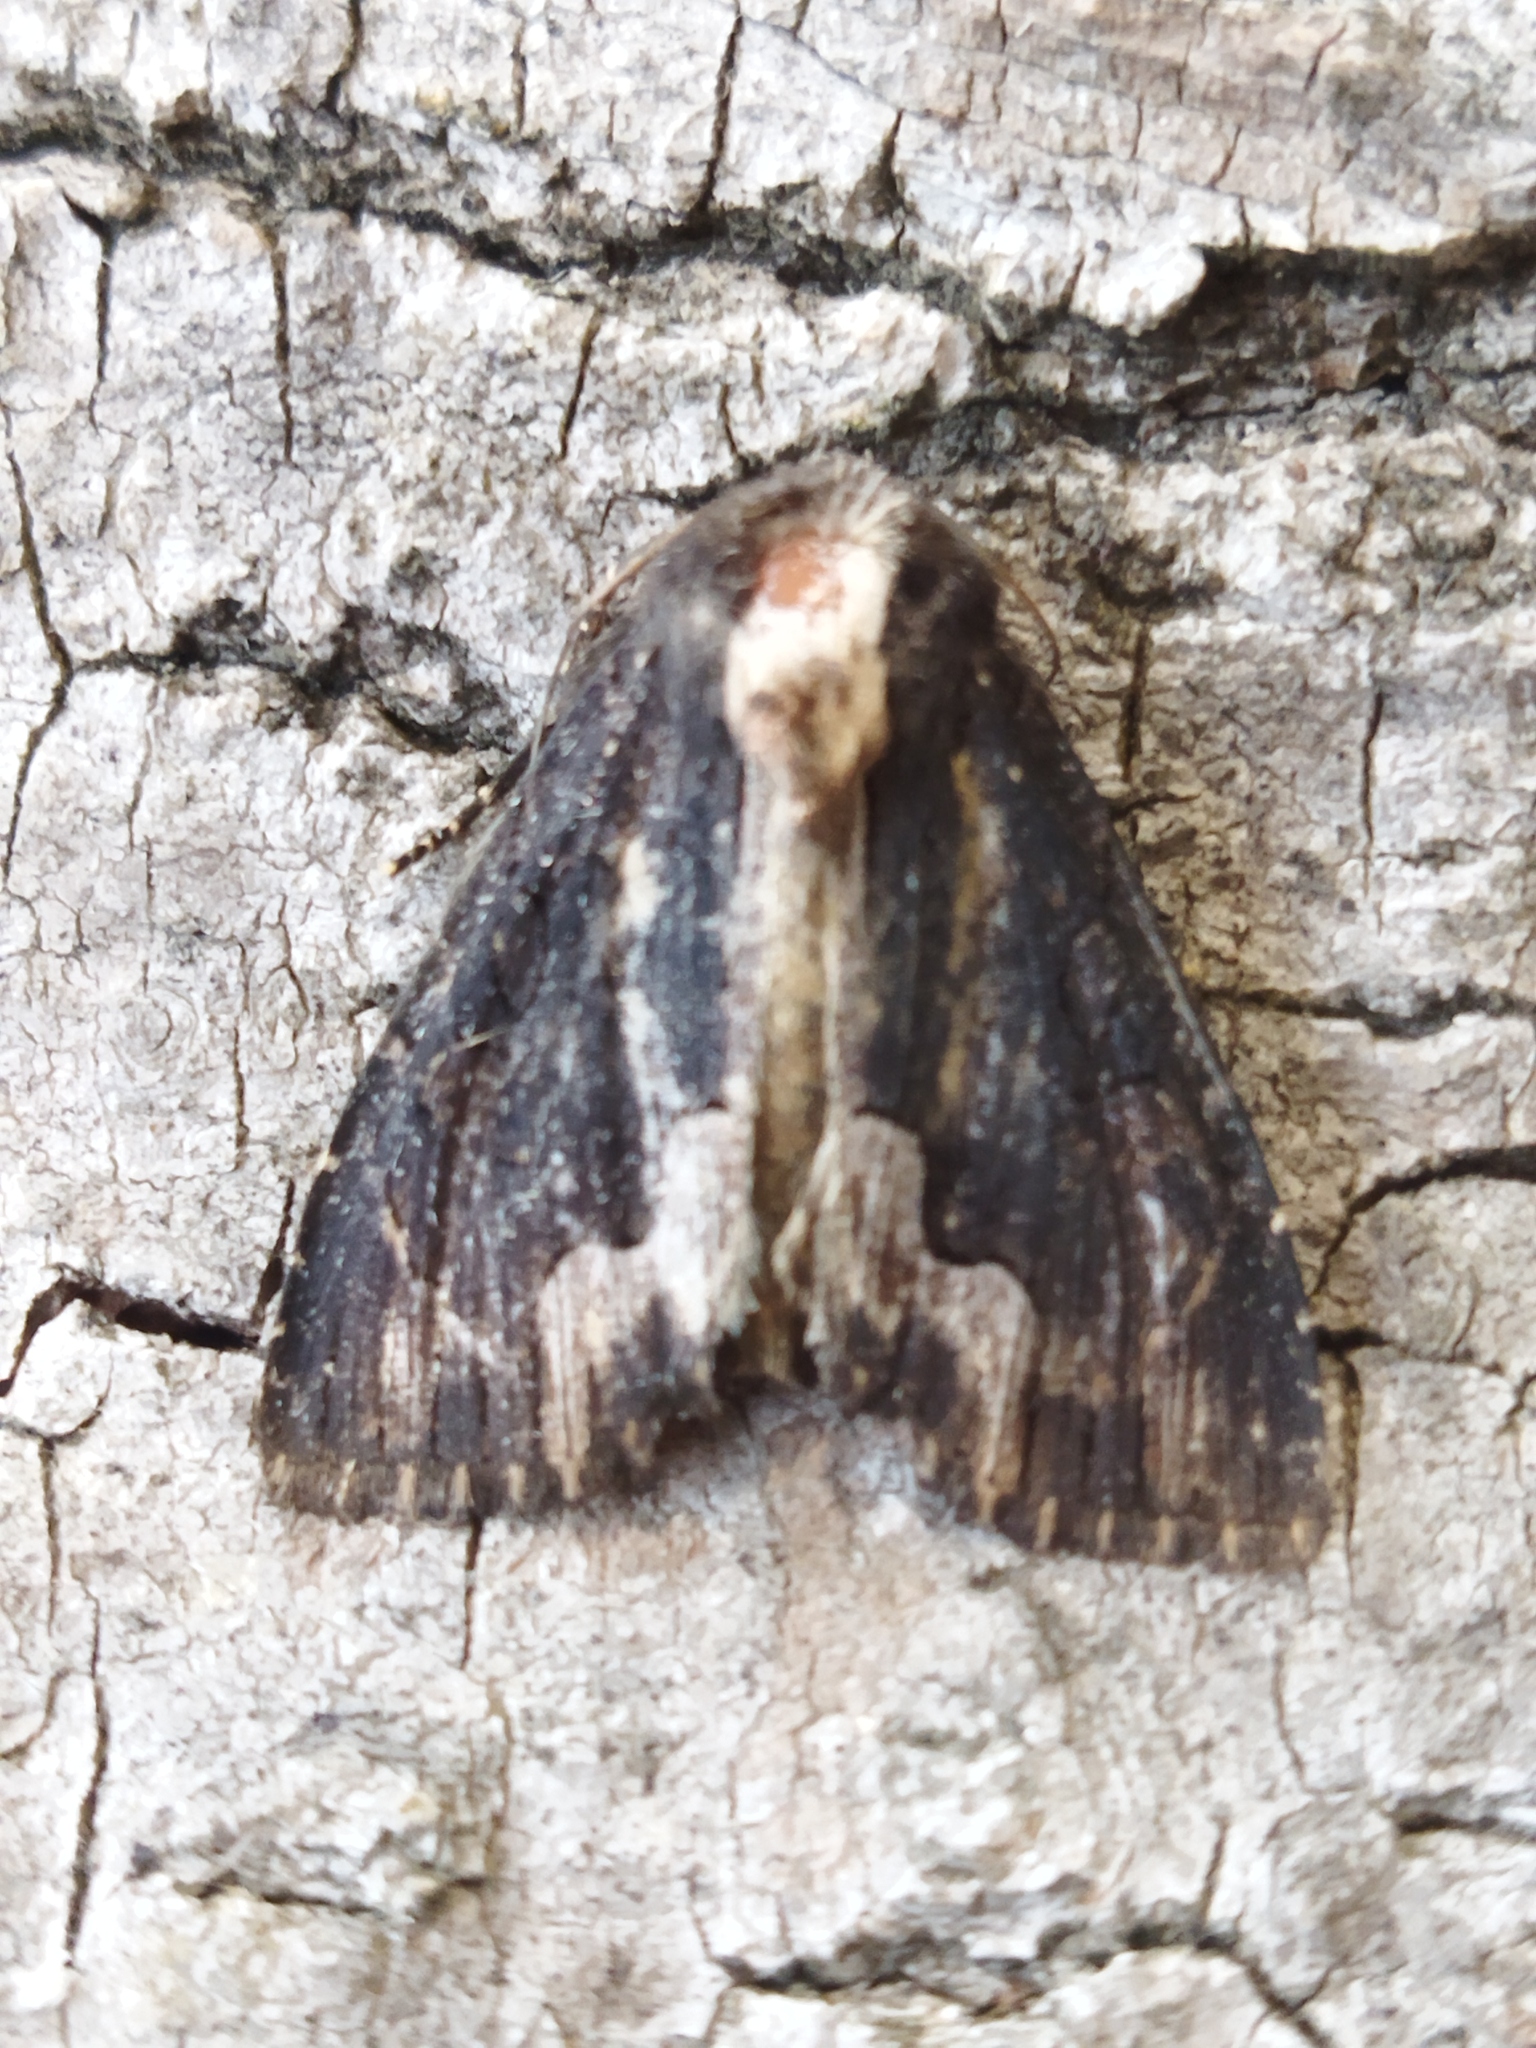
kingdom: Animalia
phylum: Arthropoda
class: Insecta
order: Lepidoptera
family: Noctuidae
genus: Dypterygia
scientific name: Dypterygia scabriuscula
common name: Bird's wing
